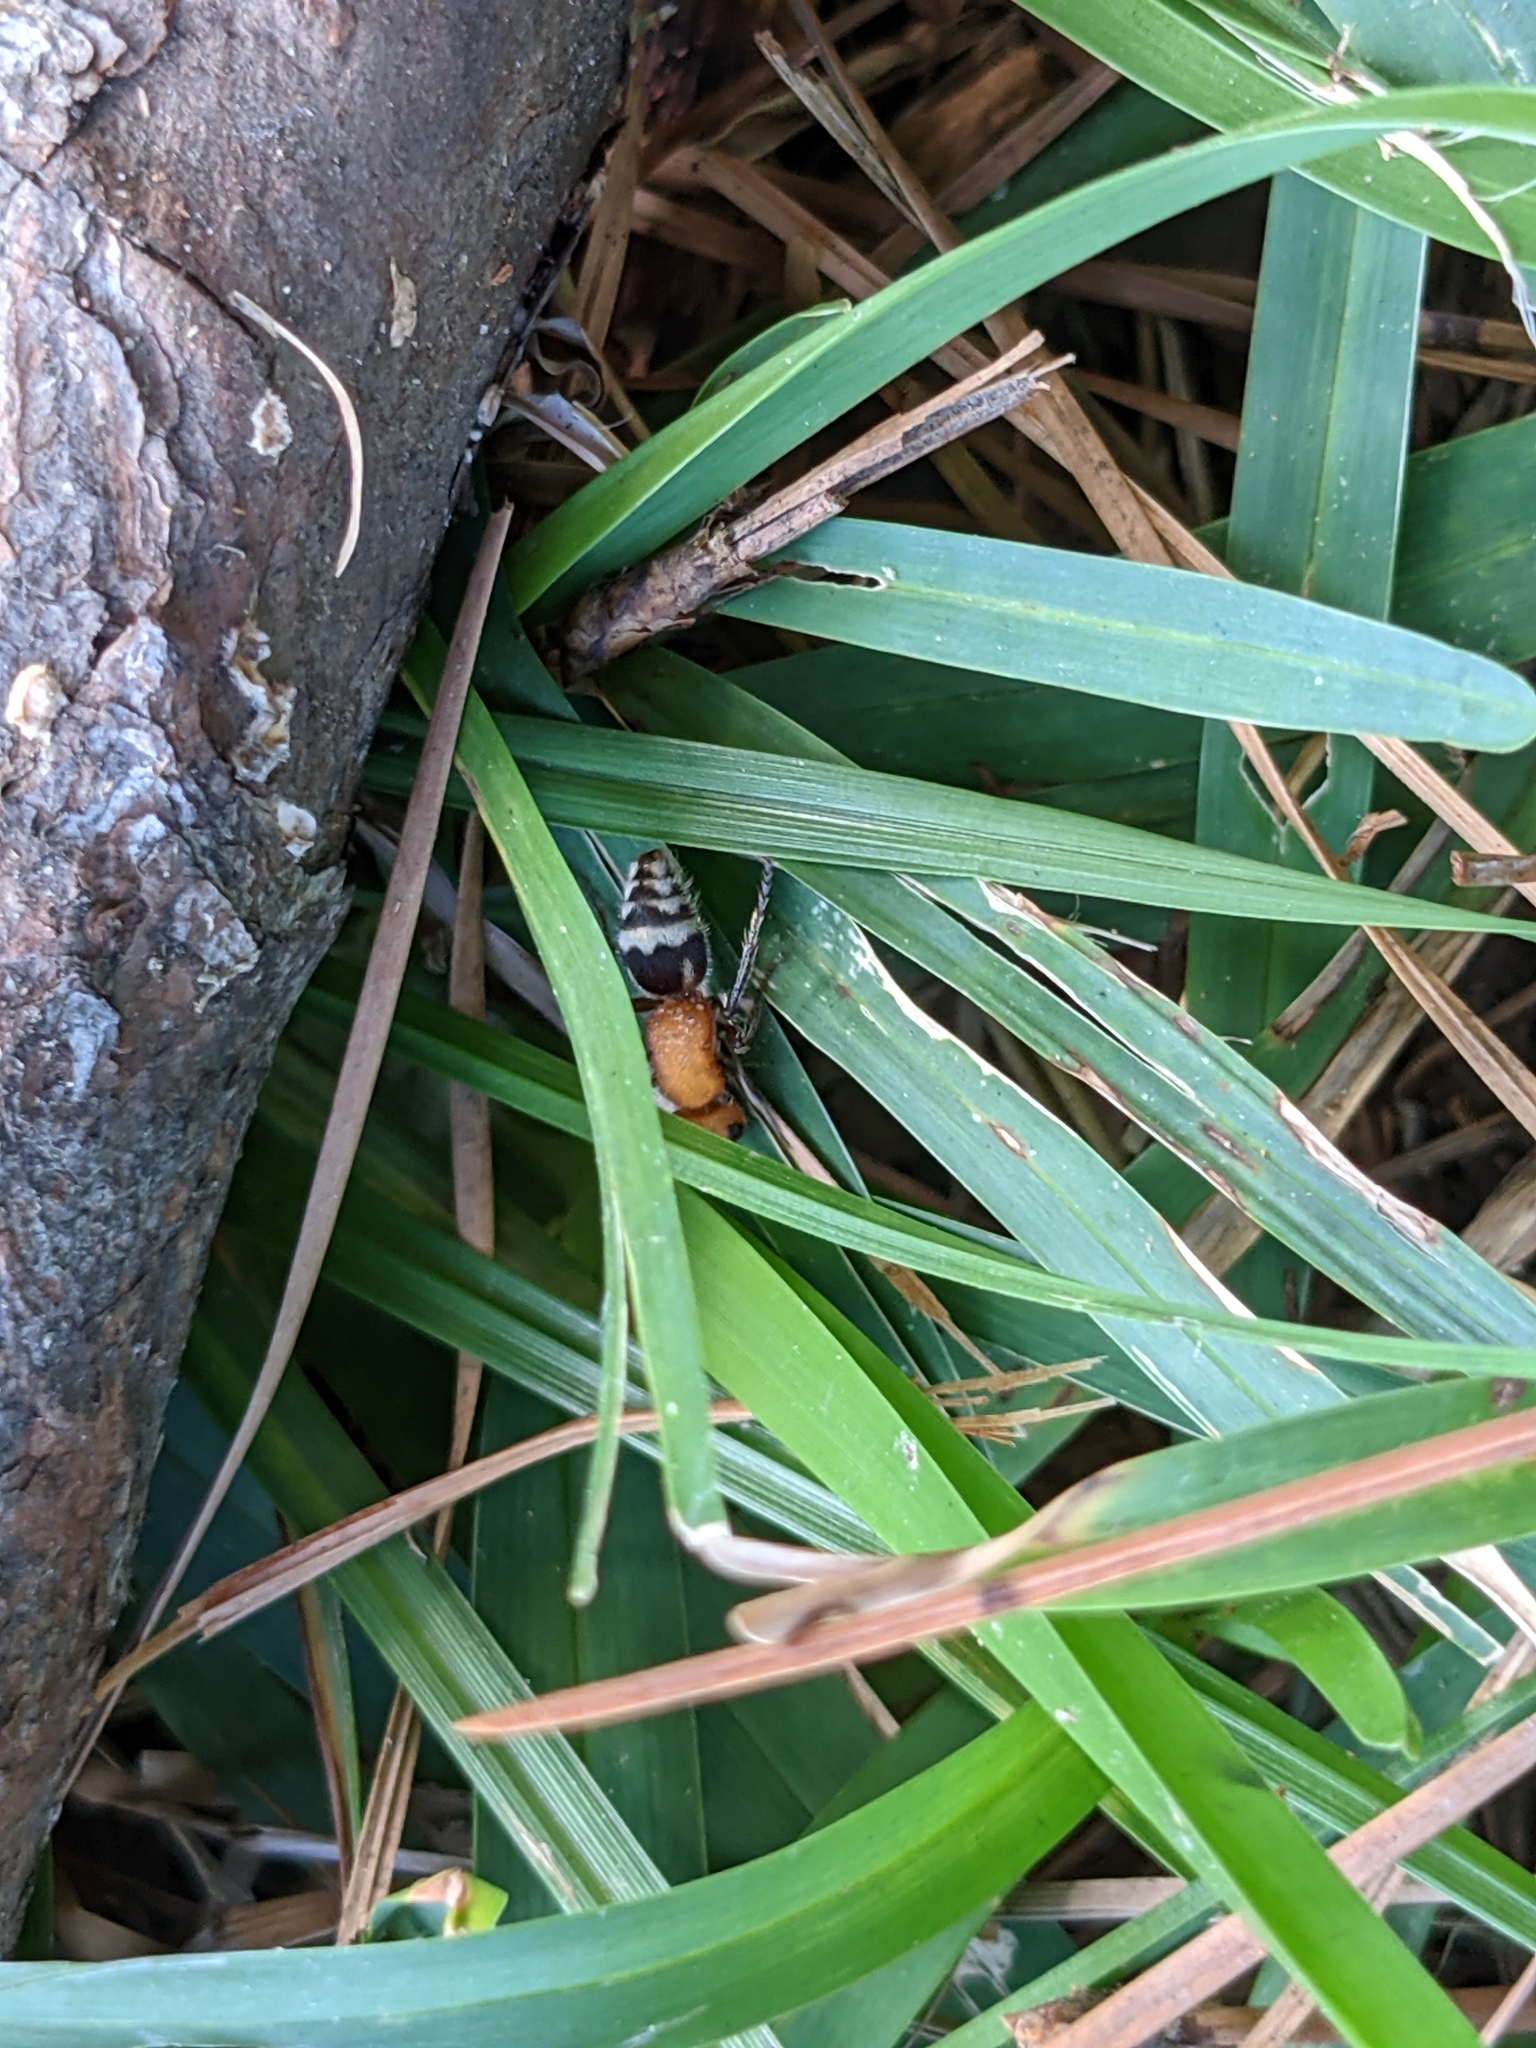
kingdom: Animalia
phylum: Arthropoda
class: Insecta
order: Hymenoptera
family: Mutillidae
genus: Timulla
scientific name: Timulla
